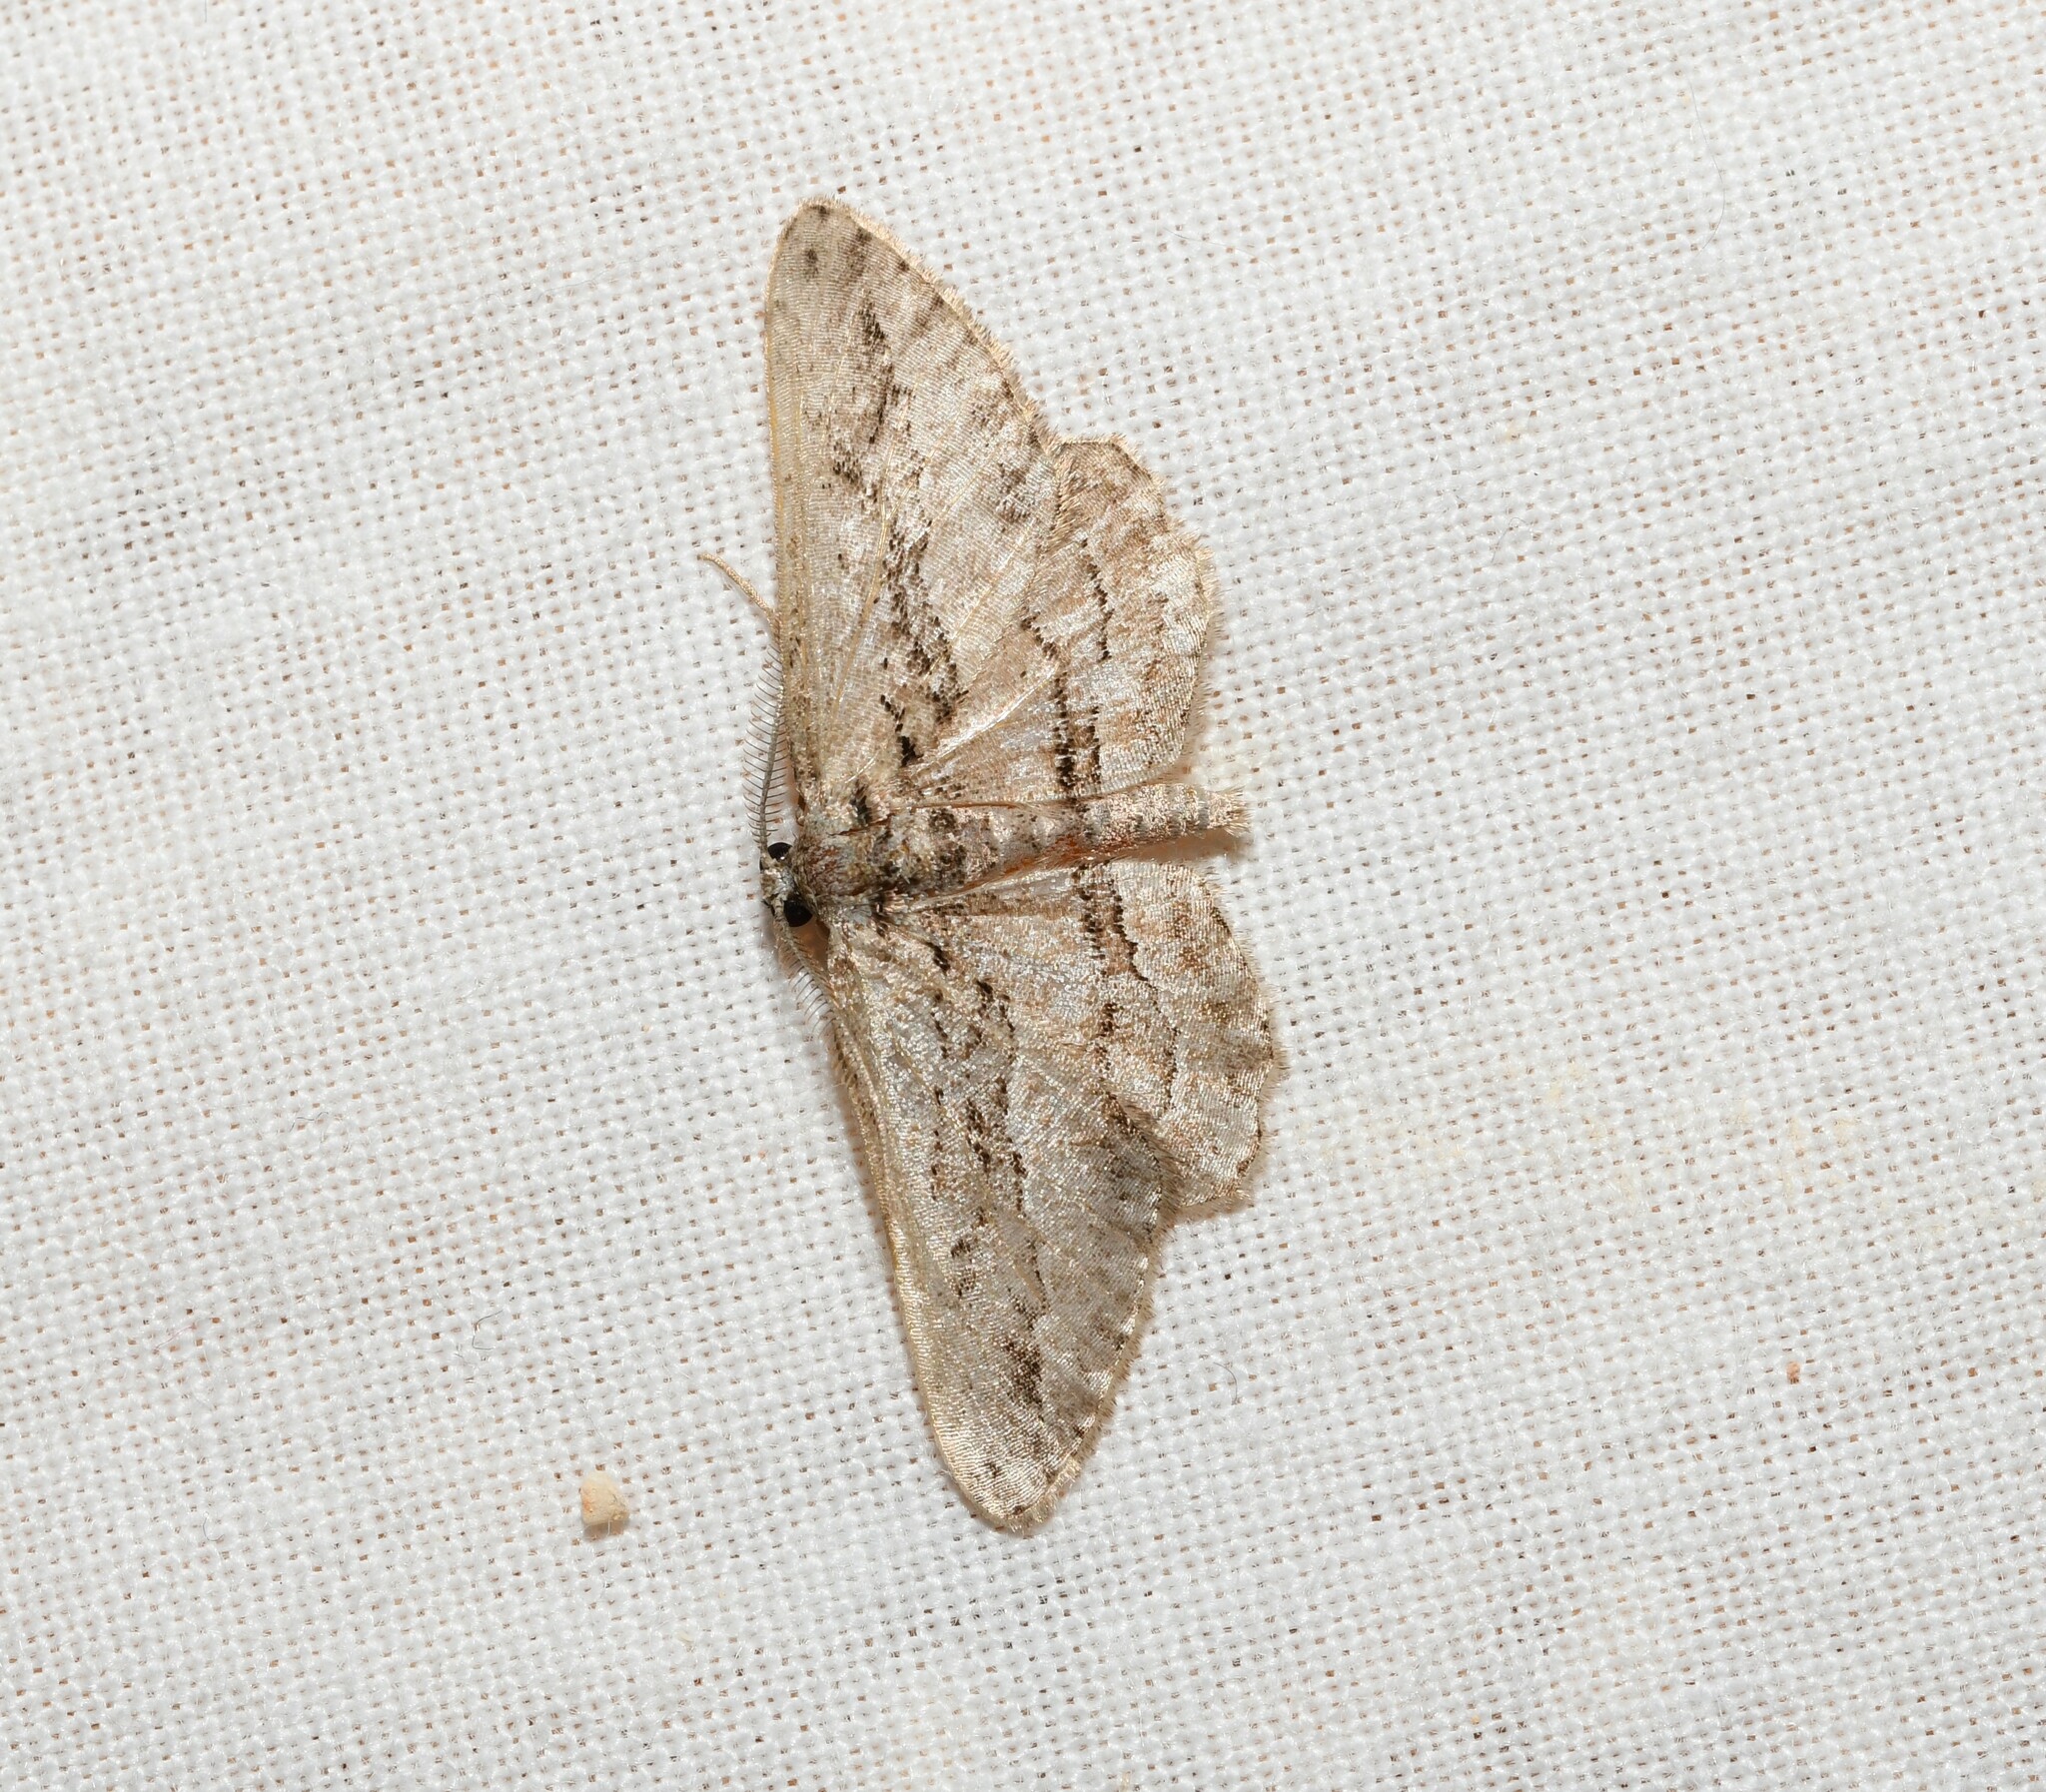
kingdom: Animalia
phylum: Arthropoda
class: Insecta
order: Lepidoptera
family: Geometridae
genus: Ekboarmia
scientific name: Ekboarmia atlanticaria
